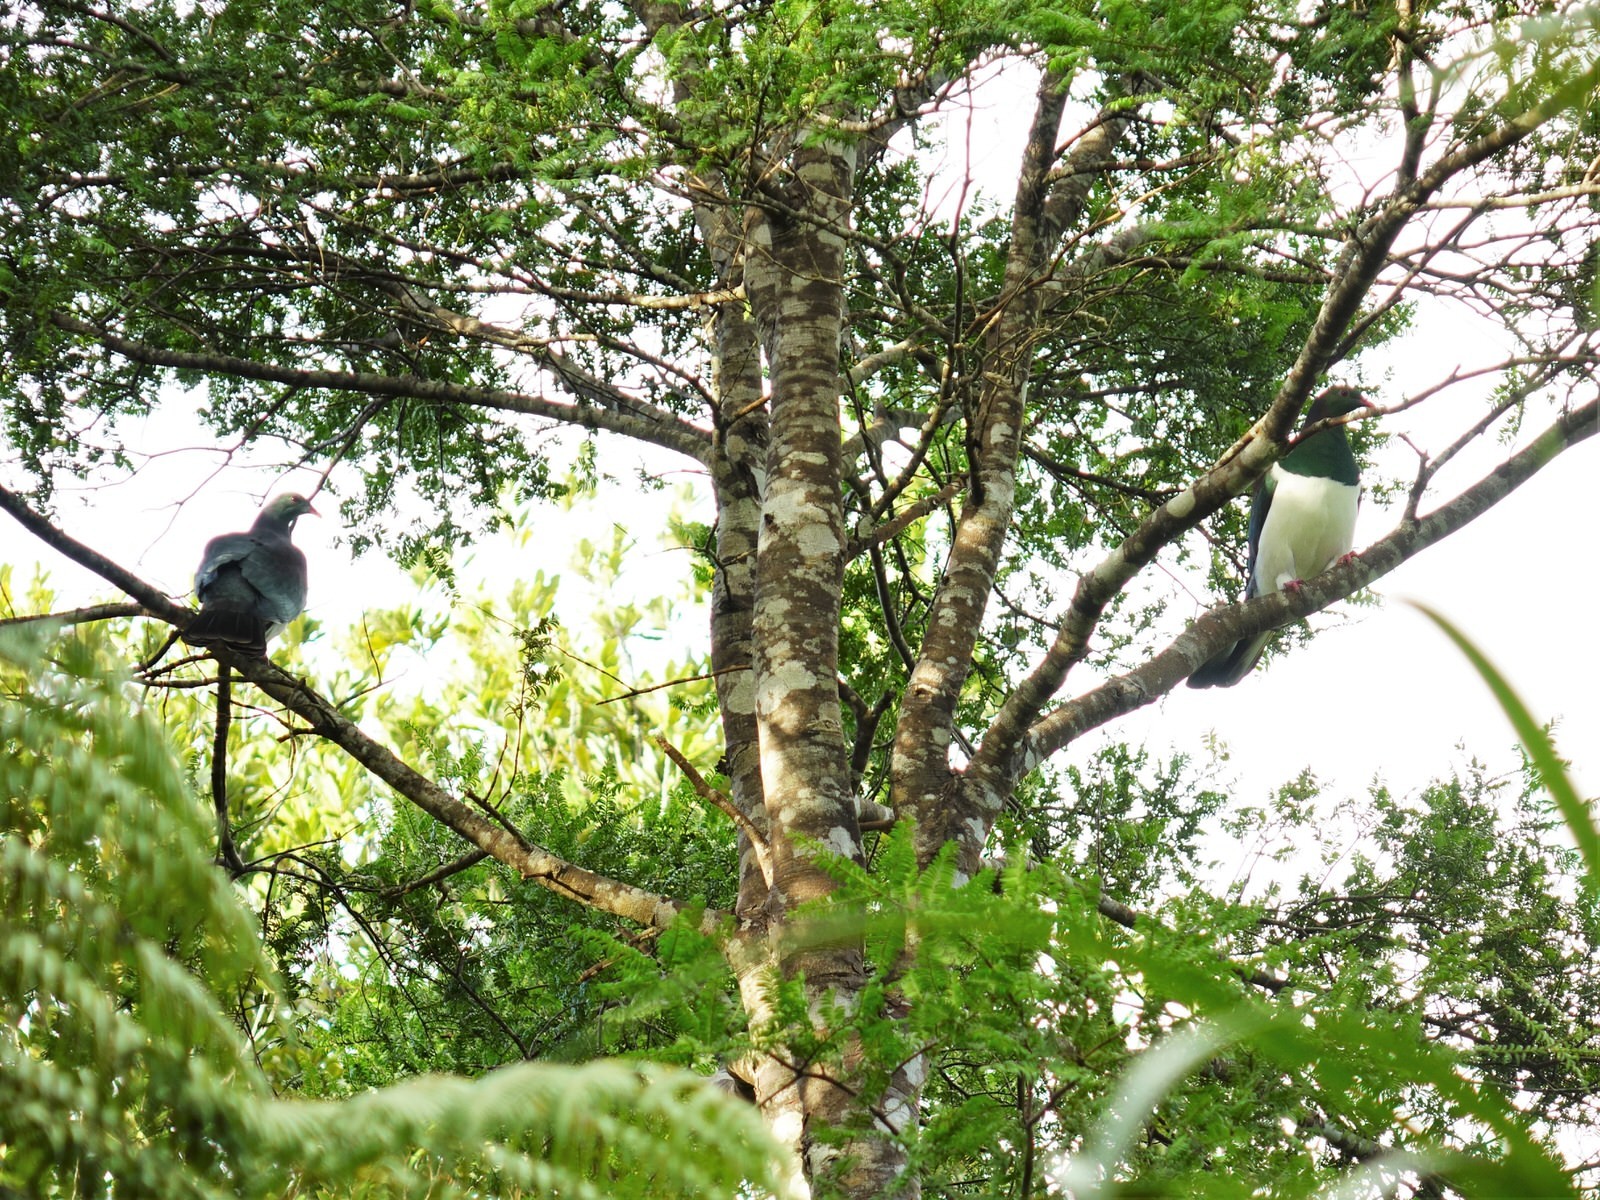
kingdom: Animalia
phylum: Chordata
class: Aves
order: Columbiformes
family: Columbidae
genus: Hemiphaga
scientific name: Hemiphaga novaeseelandiae
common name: New zealand pigeon
